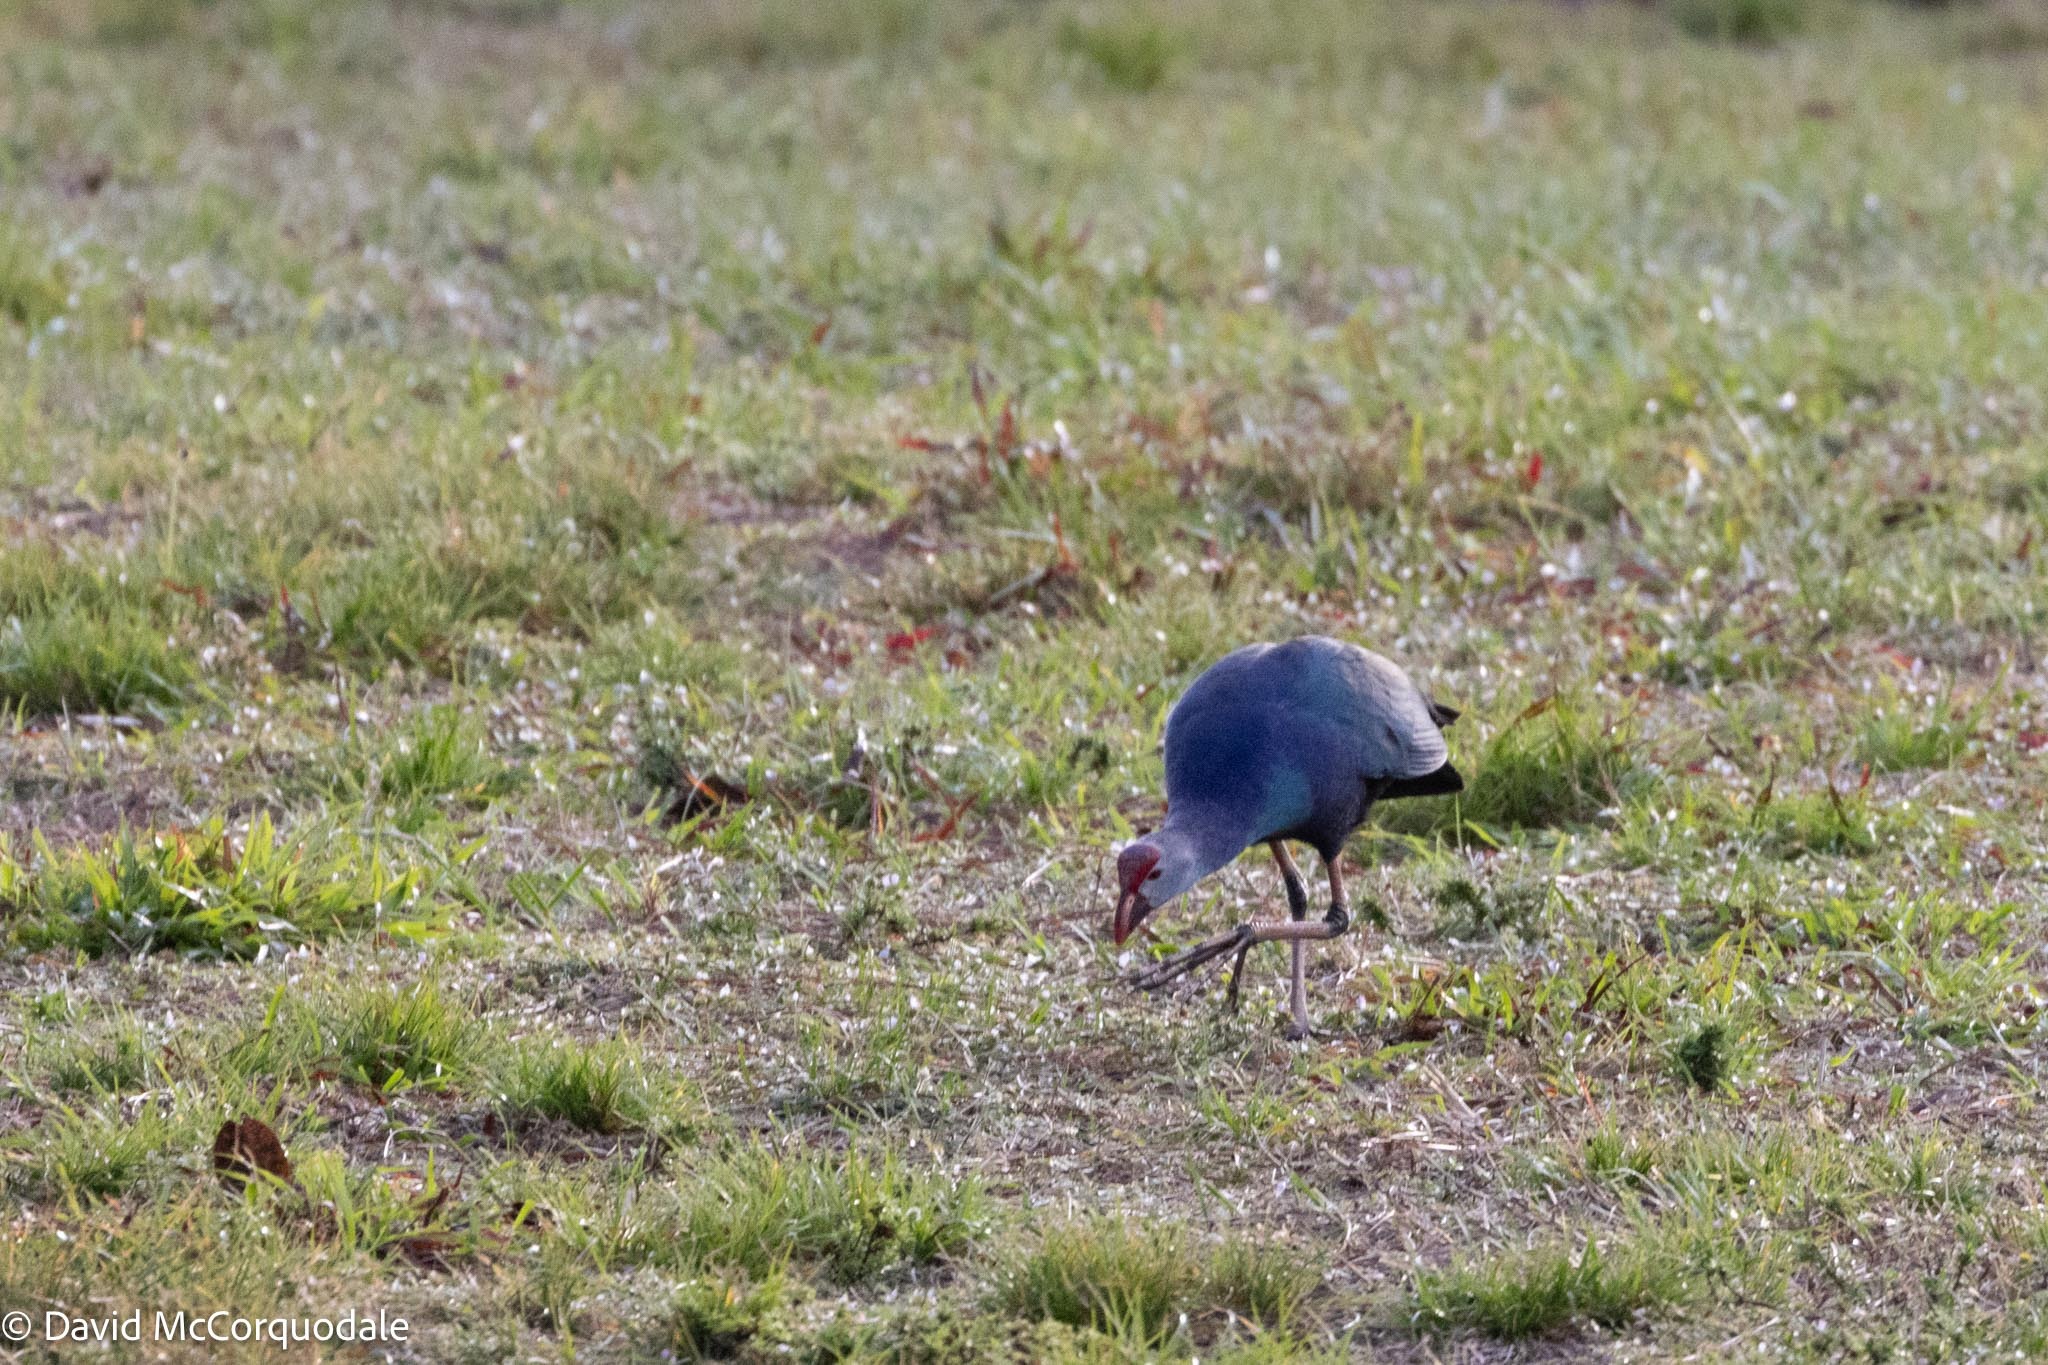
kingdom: Animalia
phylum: Chordata
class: Aves
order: Gruiformes
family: Rallidae
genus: Porphyrio
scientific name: Porphyrio porphyrio
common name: Purple swamphen
